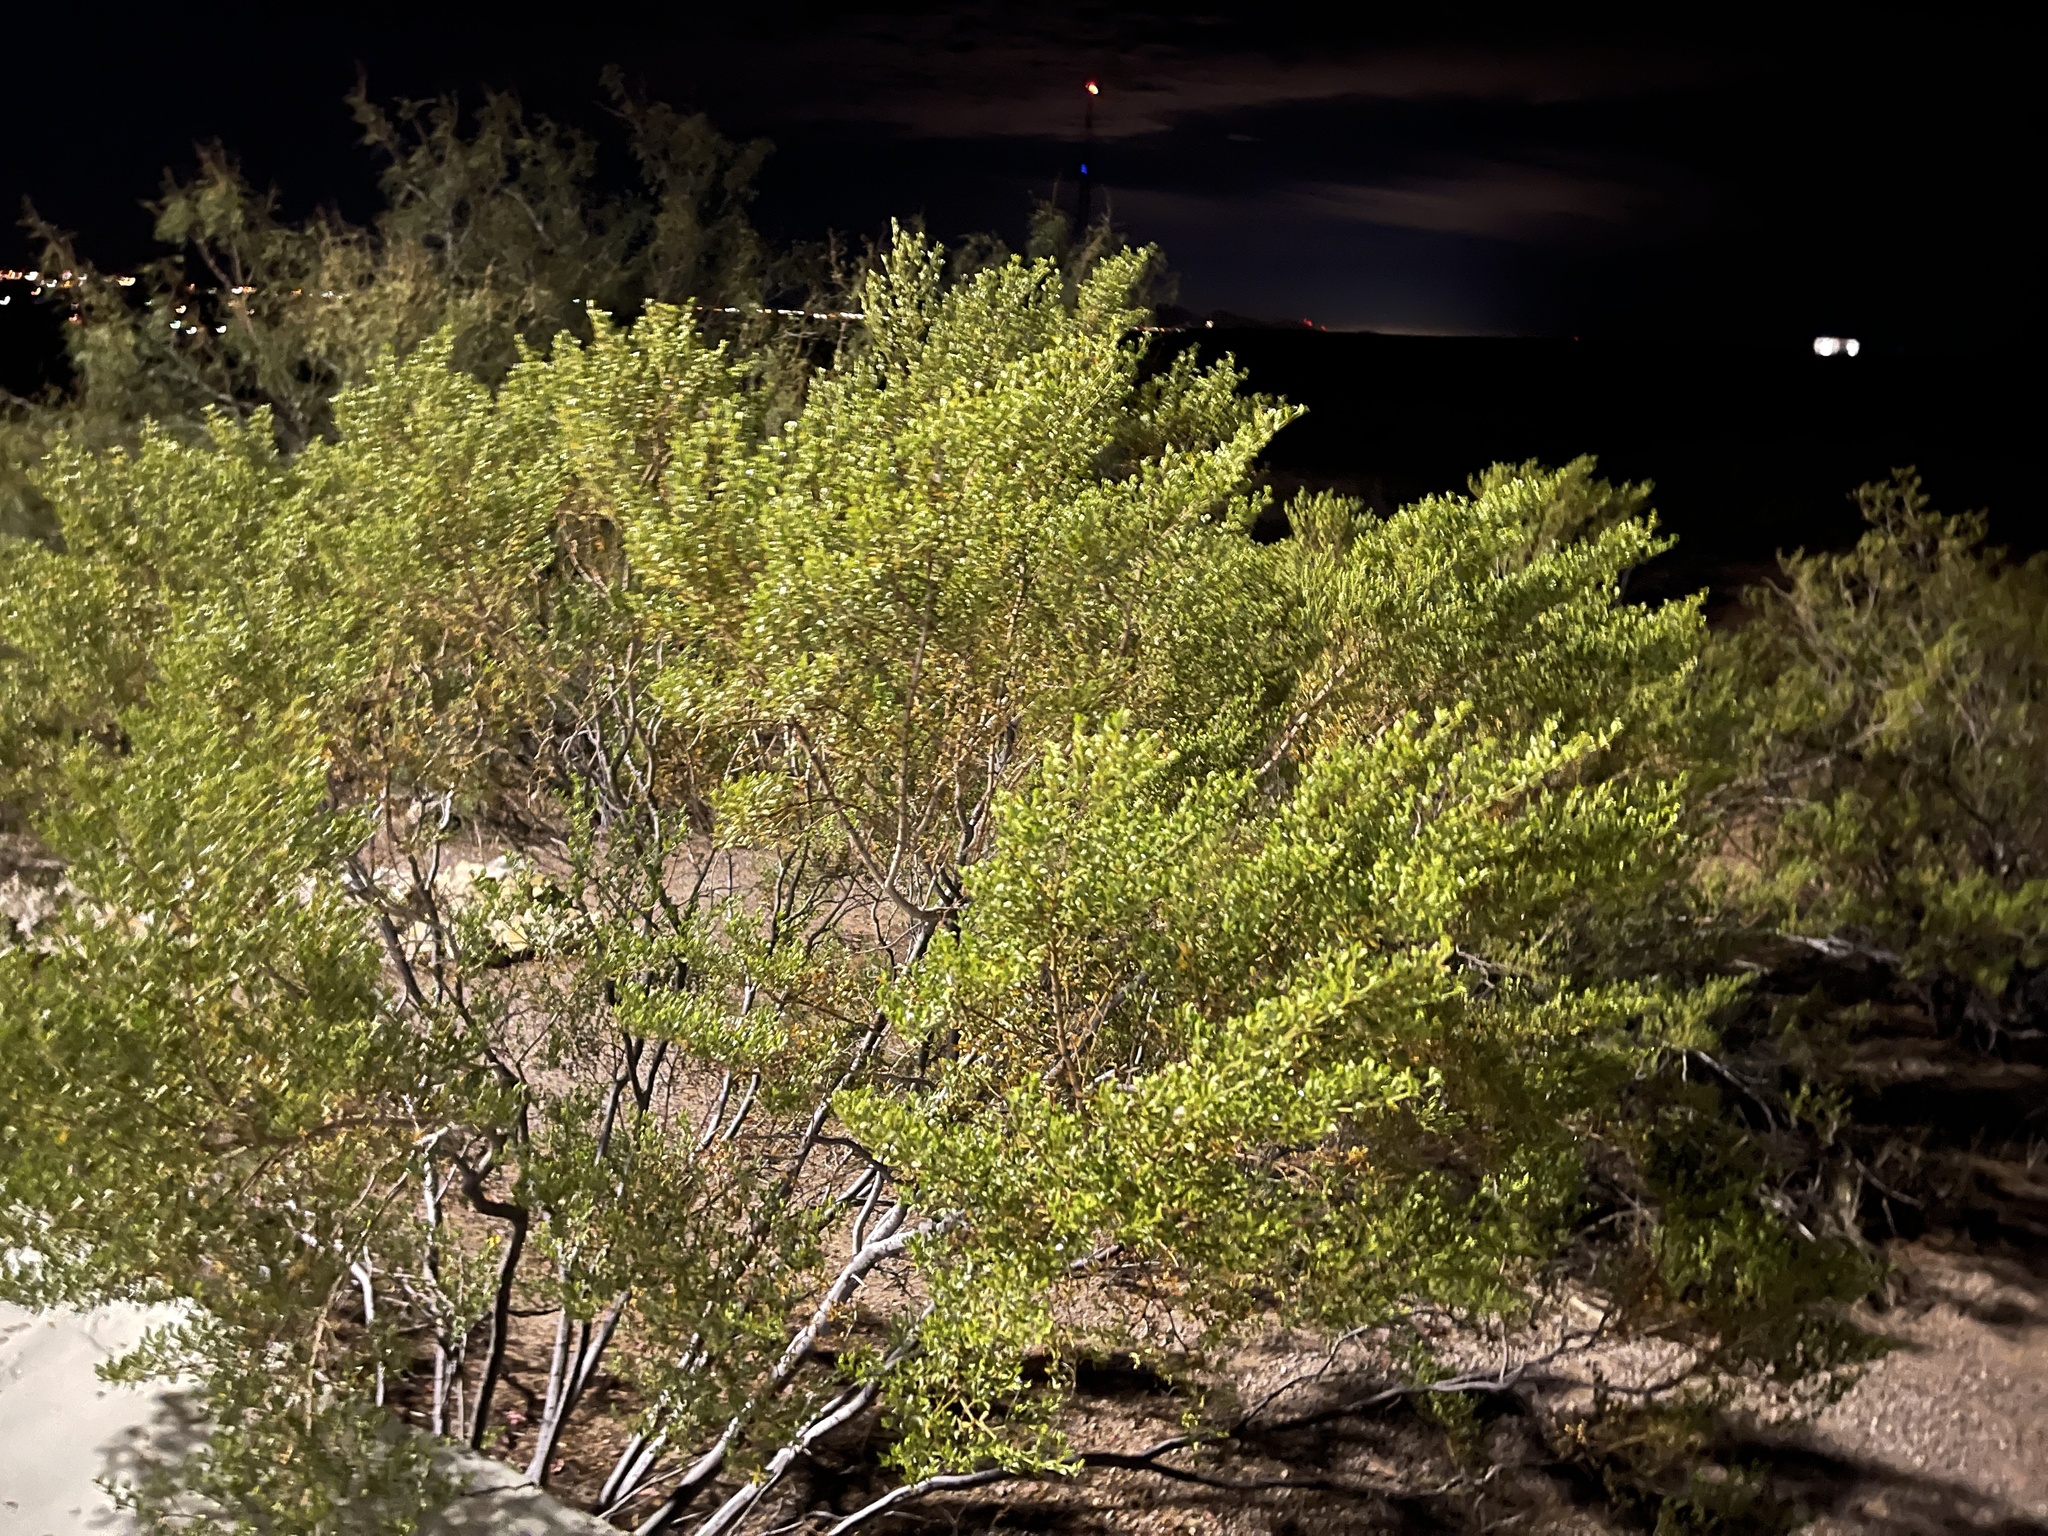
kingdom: Plantae
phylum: Tracheophyta
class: Magnoliopsida
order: Zygophyllales
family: Zygophyllaceae
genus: Larrea
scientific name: Larrea tridentata
